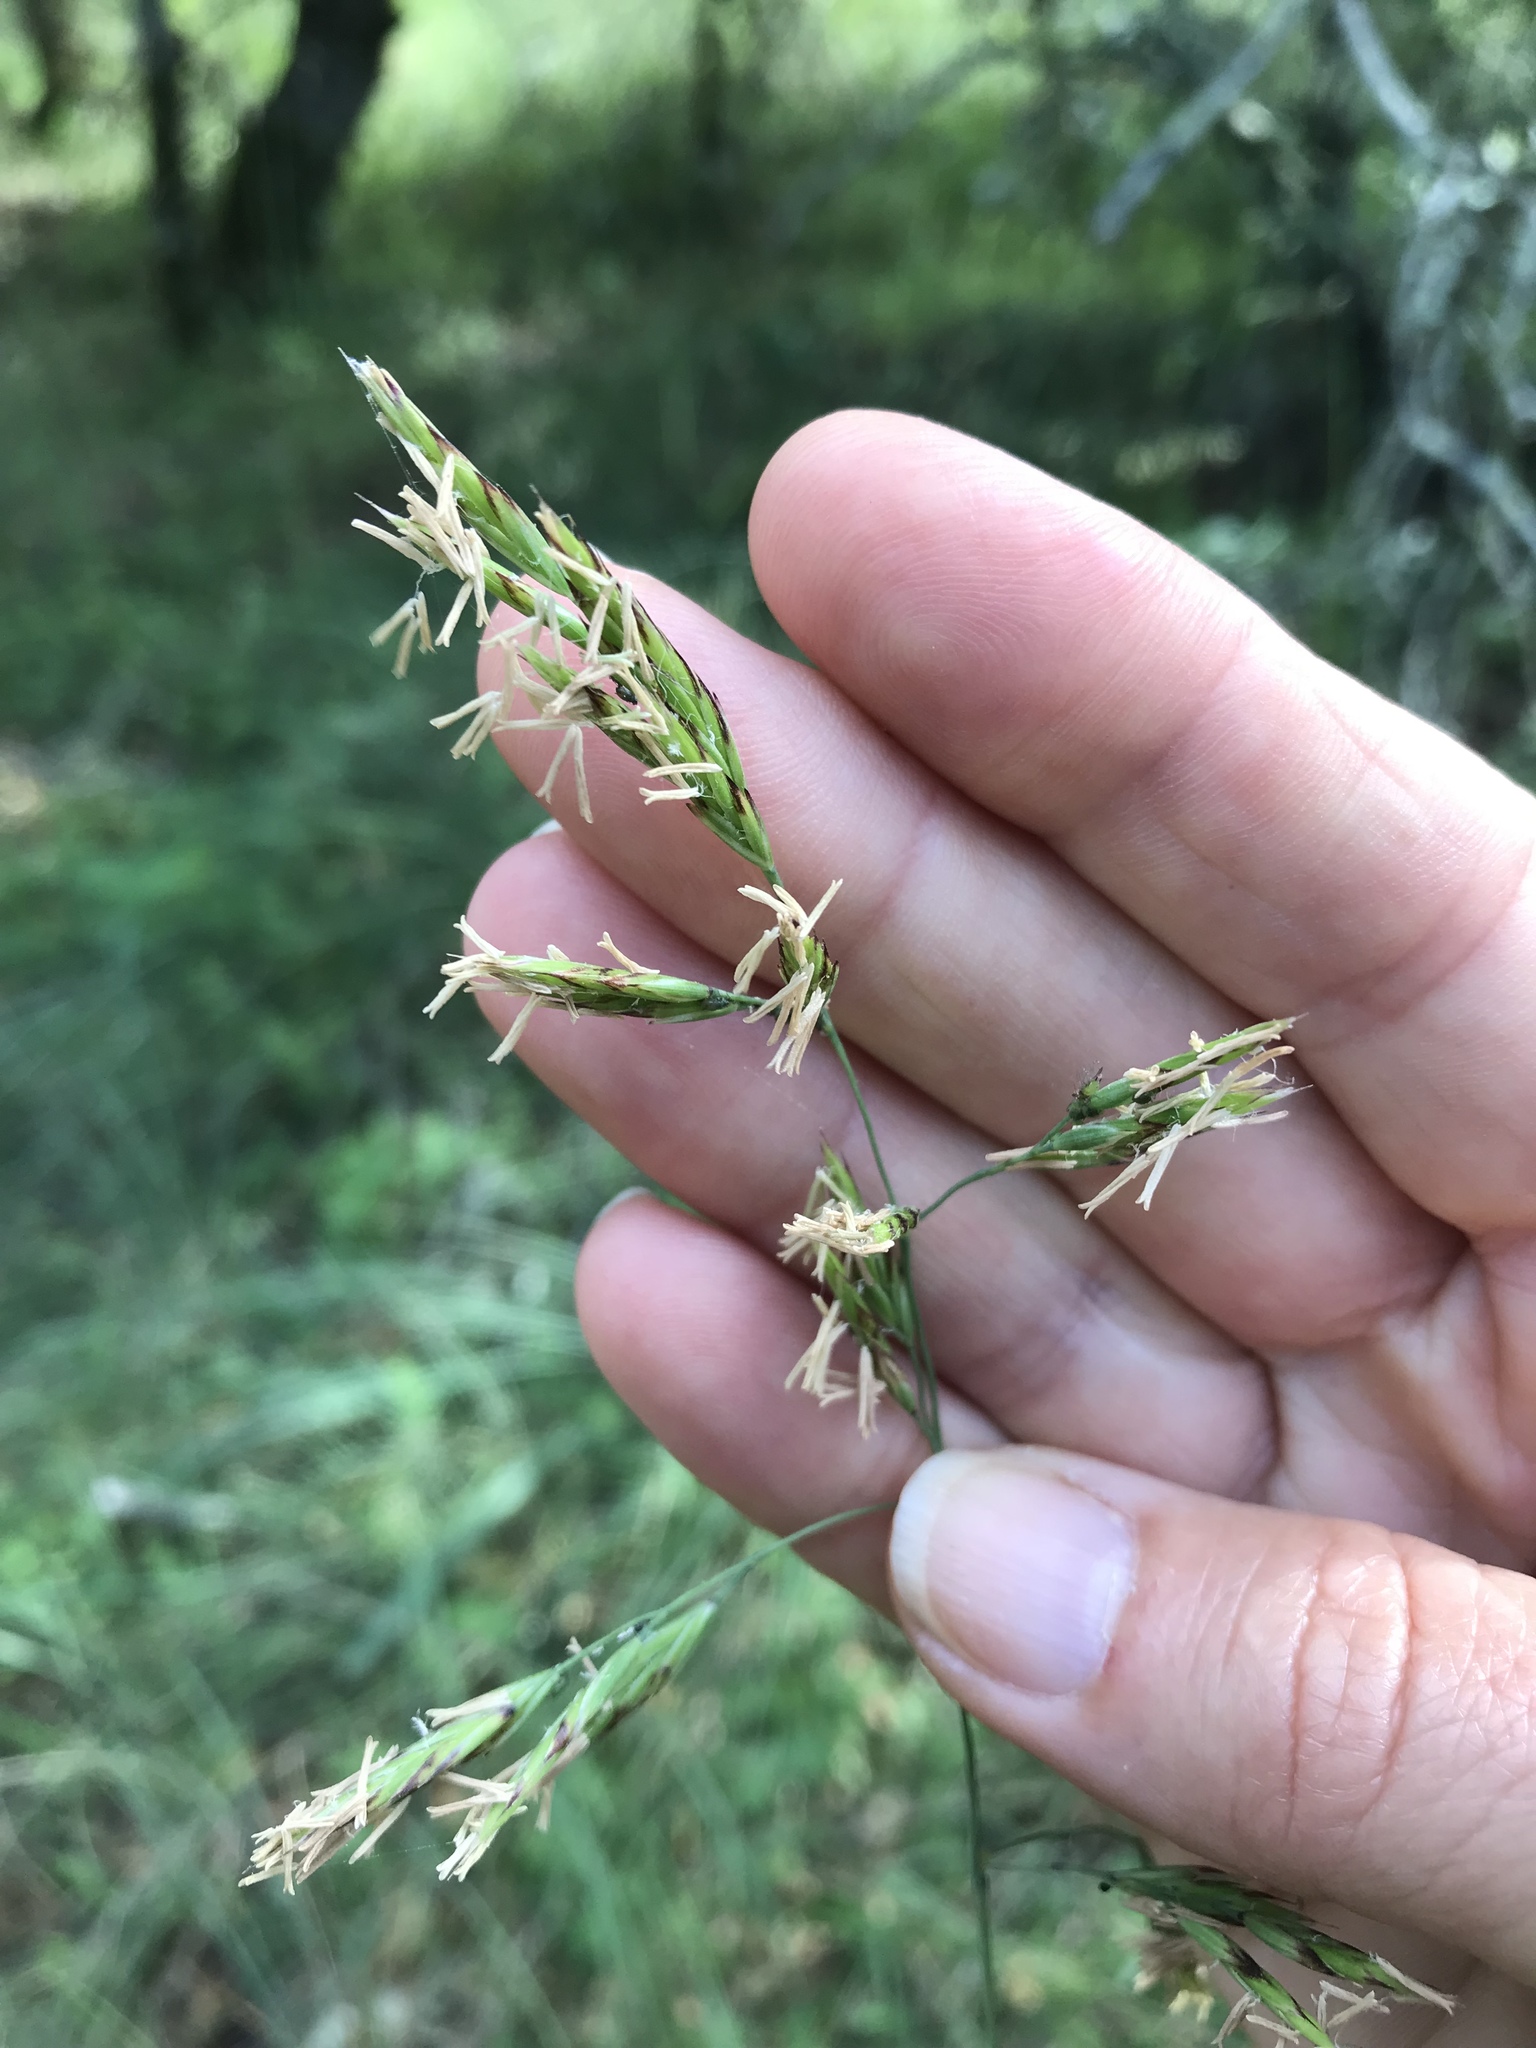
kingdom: Plantae
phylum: Tracheophyta
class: Liliopsida
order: Poales
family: Poaceae
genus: Festuca
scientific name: Festuca californica
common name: California fescue
